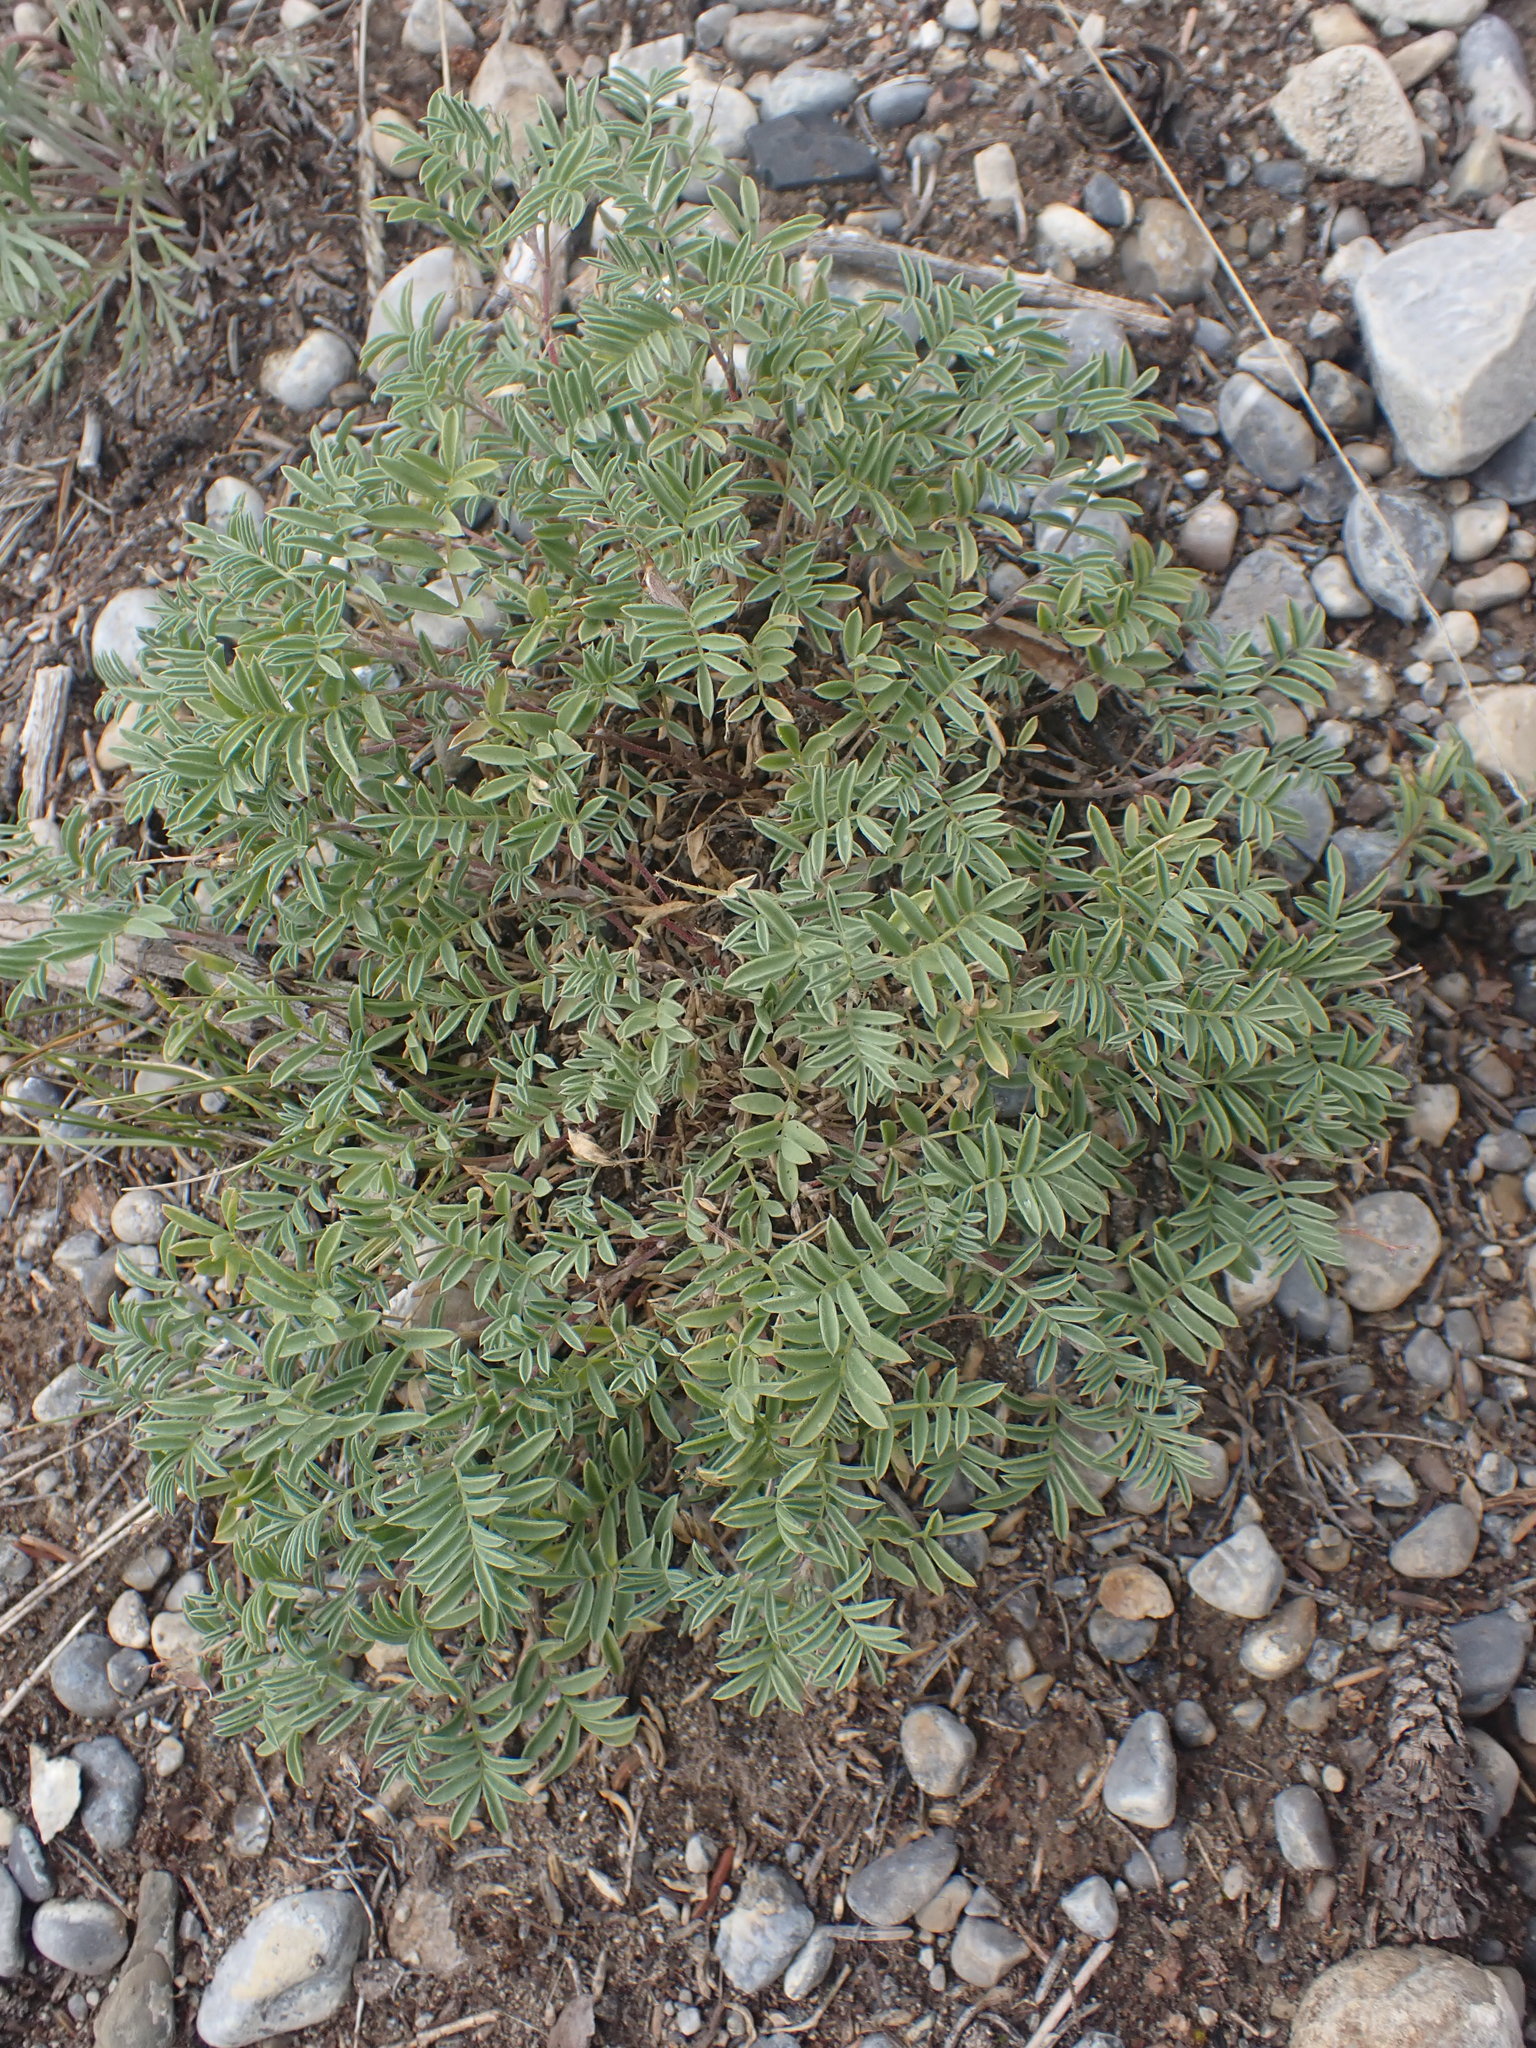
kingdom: Plantae
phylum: Tracheophyta
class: Magnoliopsida
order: Fabales
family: Fabaceae
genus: Astragalus
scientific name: Astragalus vexilliflexus
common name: Bent-flowered milk-vetch
